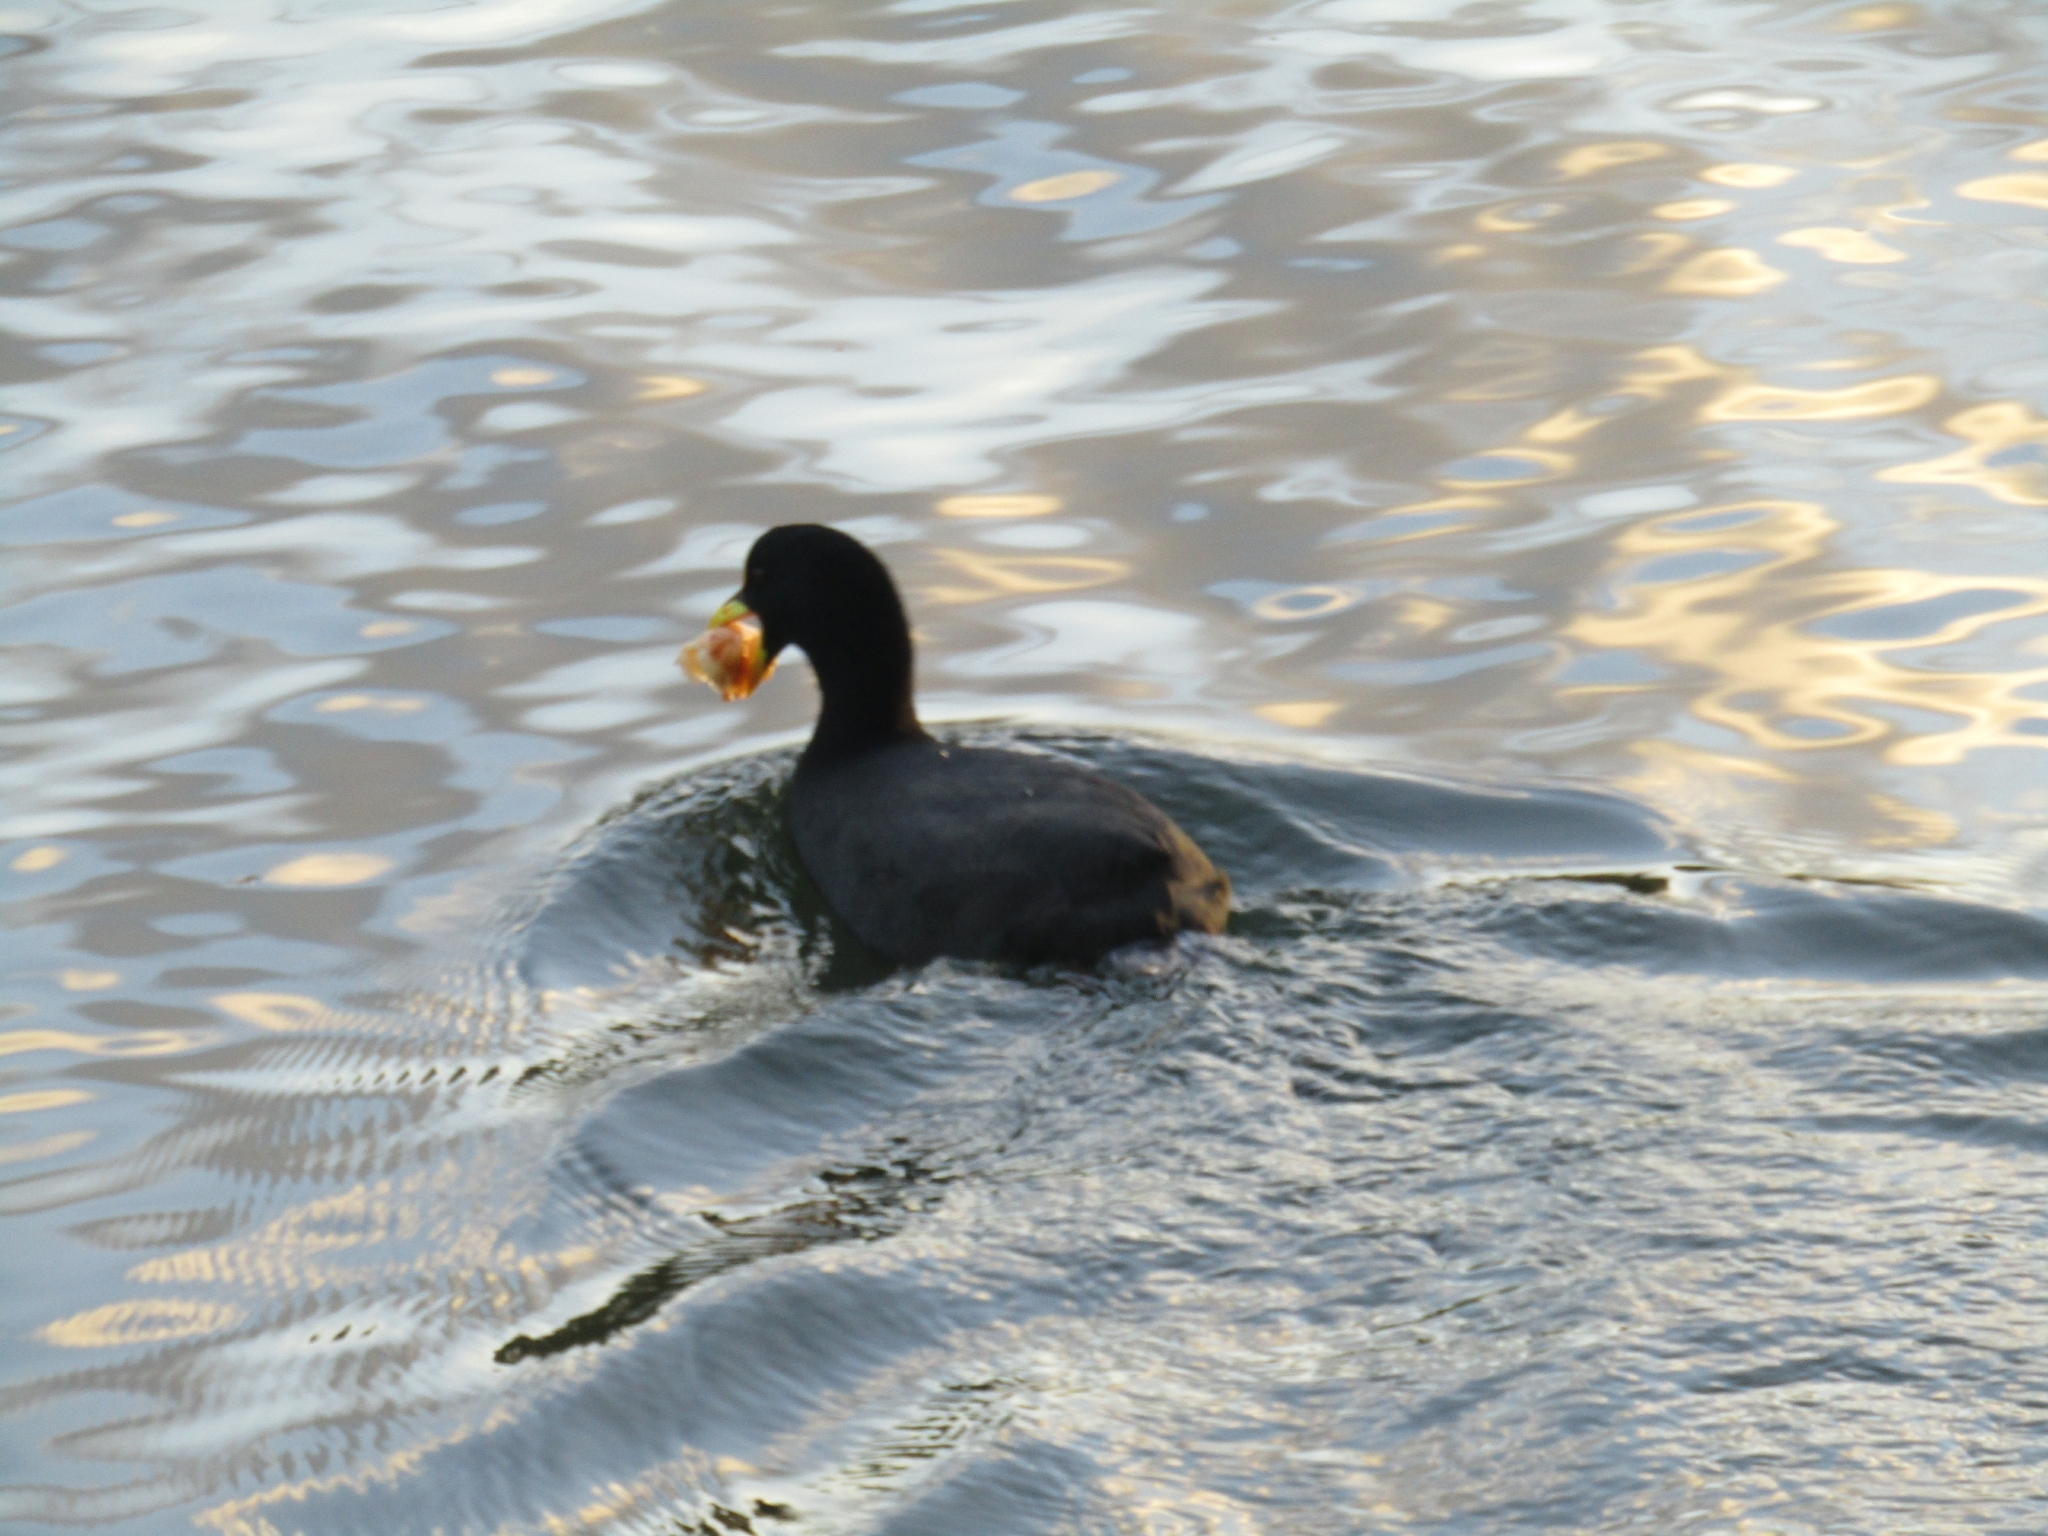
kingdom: Animalia
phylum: Chordata
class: Aves
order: Gruiformes
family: Rallidae
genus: Fulica
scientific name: Fulica armillata
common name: Red-gartered coot
